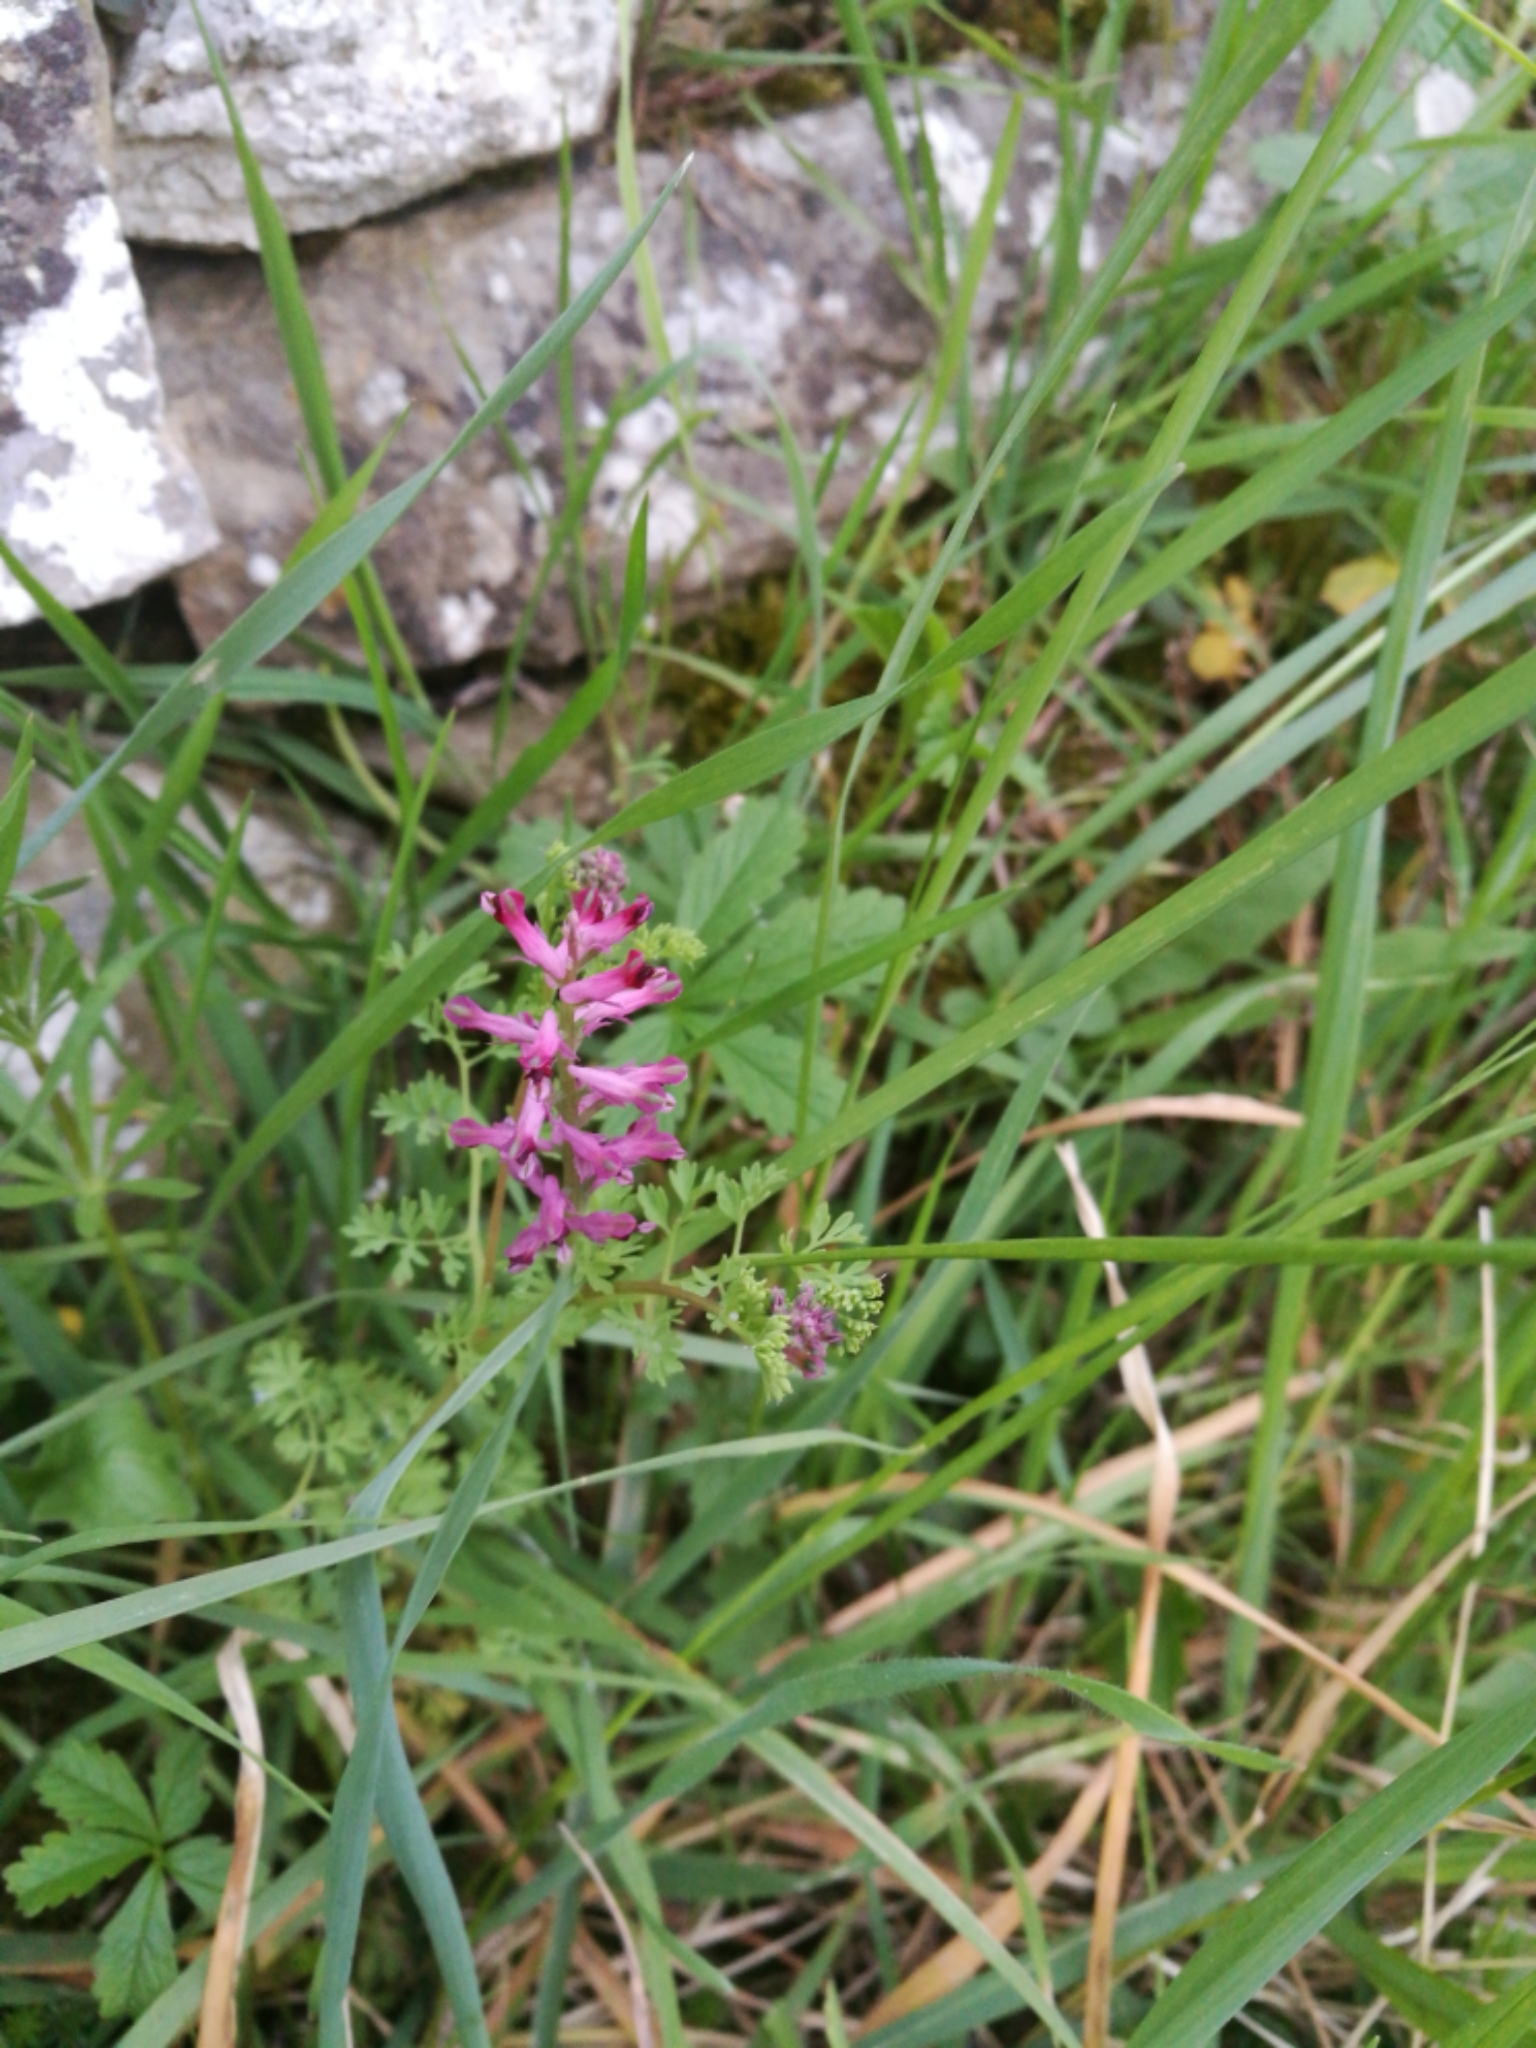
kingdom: Plantae
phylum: Tracheophyta
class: Magnoliopsida
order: Ranunculales
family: Papaveraceae
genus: Fumaria
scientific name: Fumaria officinalis
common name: Common fumitory
